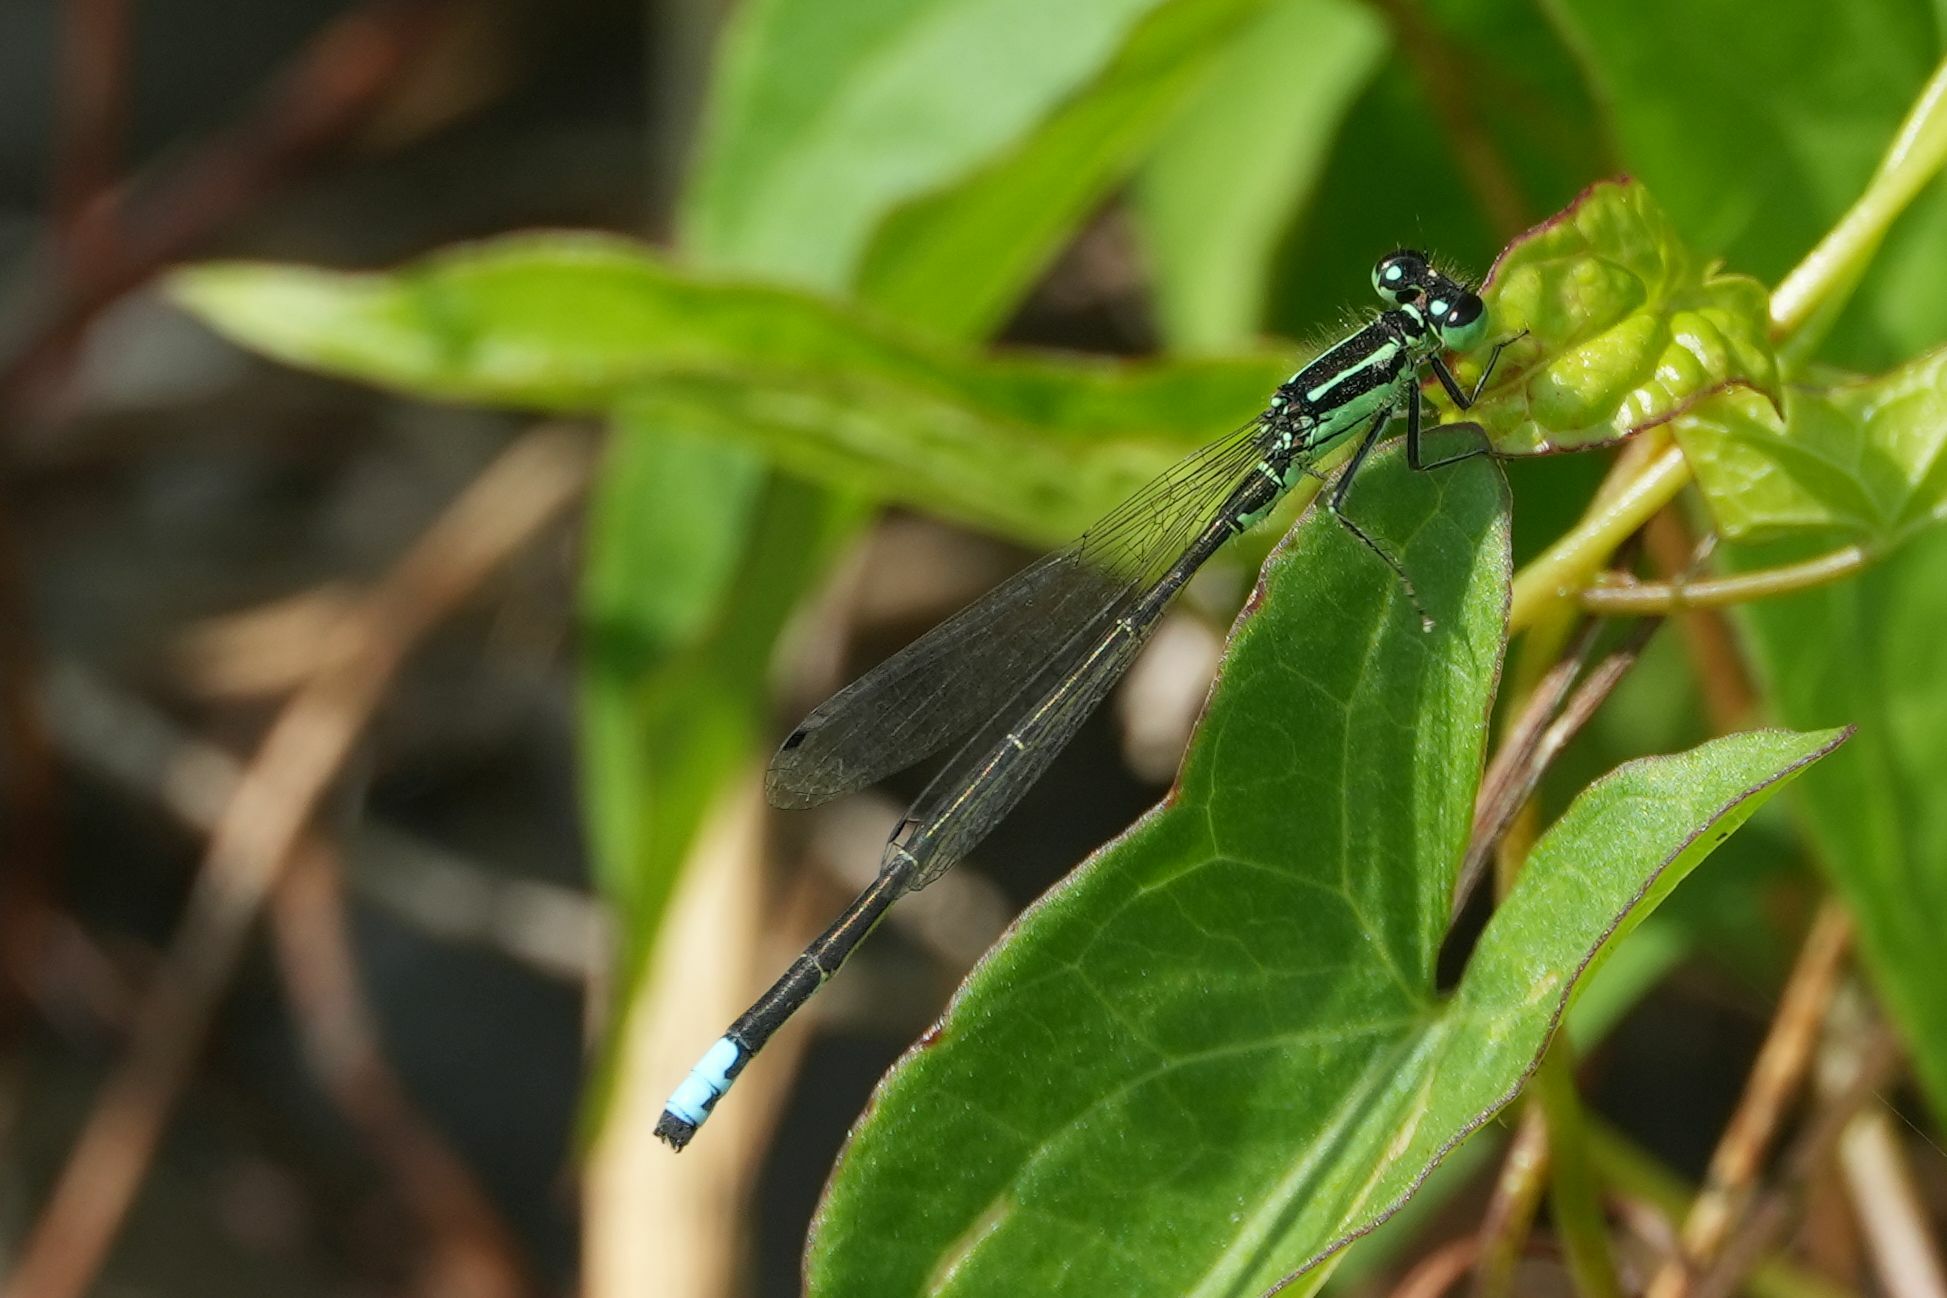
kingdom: Animalia
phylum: Arthropoda
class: Insecta
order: Odonata
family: Coenagrionidae
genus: Ischnura
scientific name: Ischnura verticalis
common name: Eastern forktail
